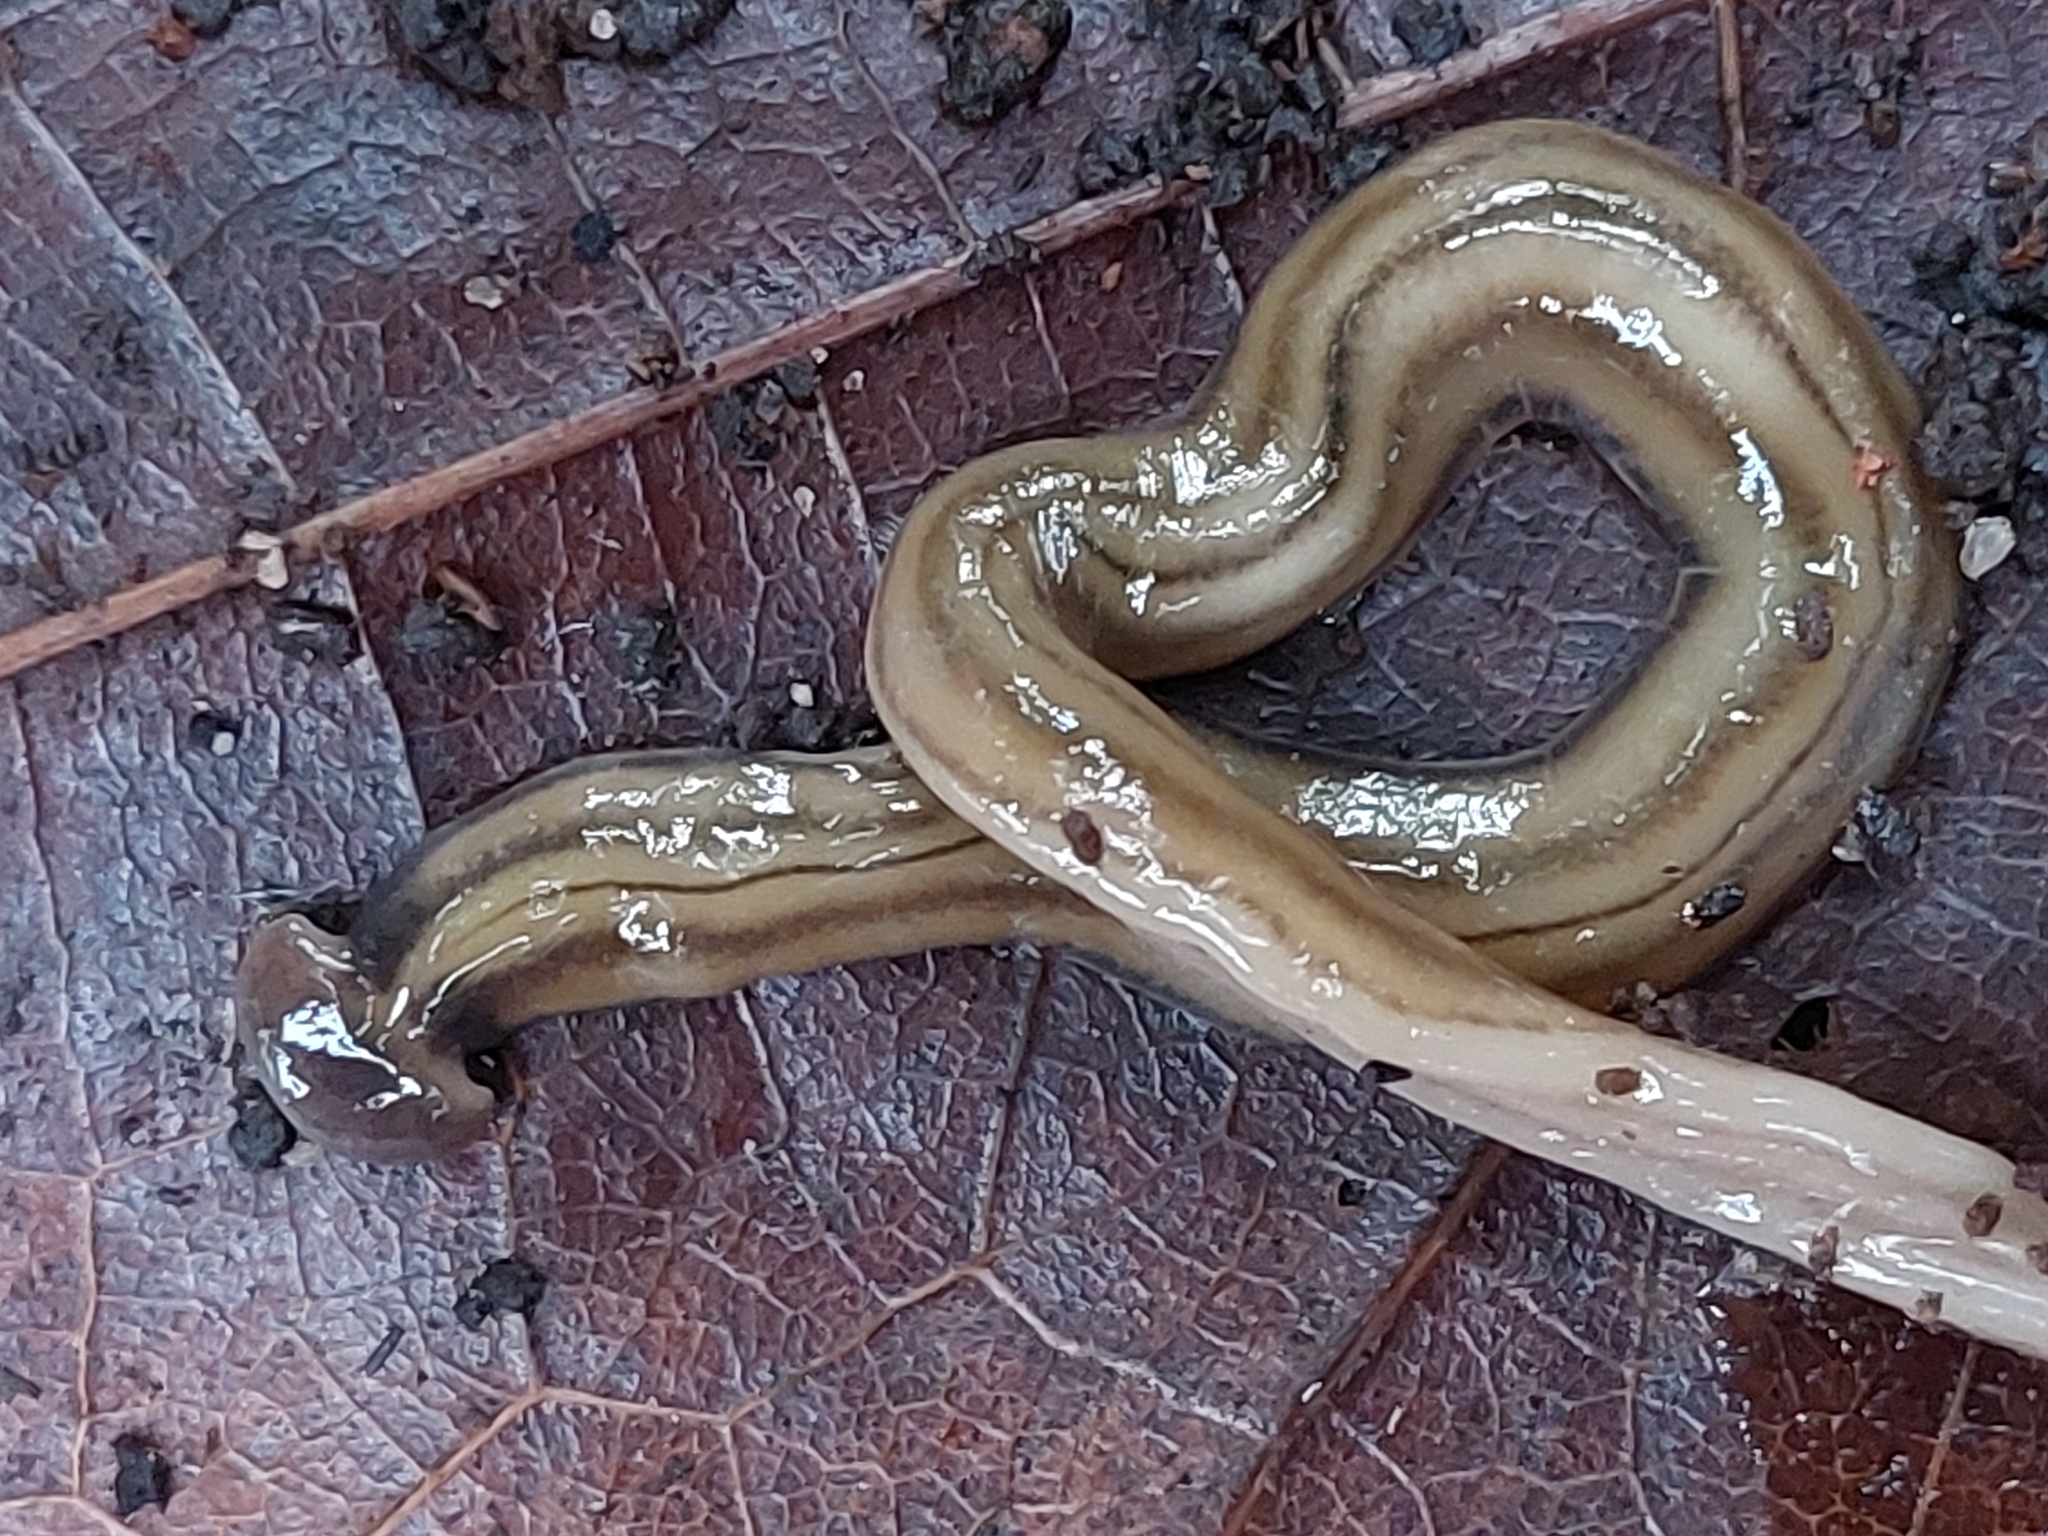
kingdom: Animalia
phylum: Platyhelminthes
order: Tricladida
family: Geoplanidae
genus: Bipalium
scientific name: Bipalium kewense
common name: Hammerhead flatworm
